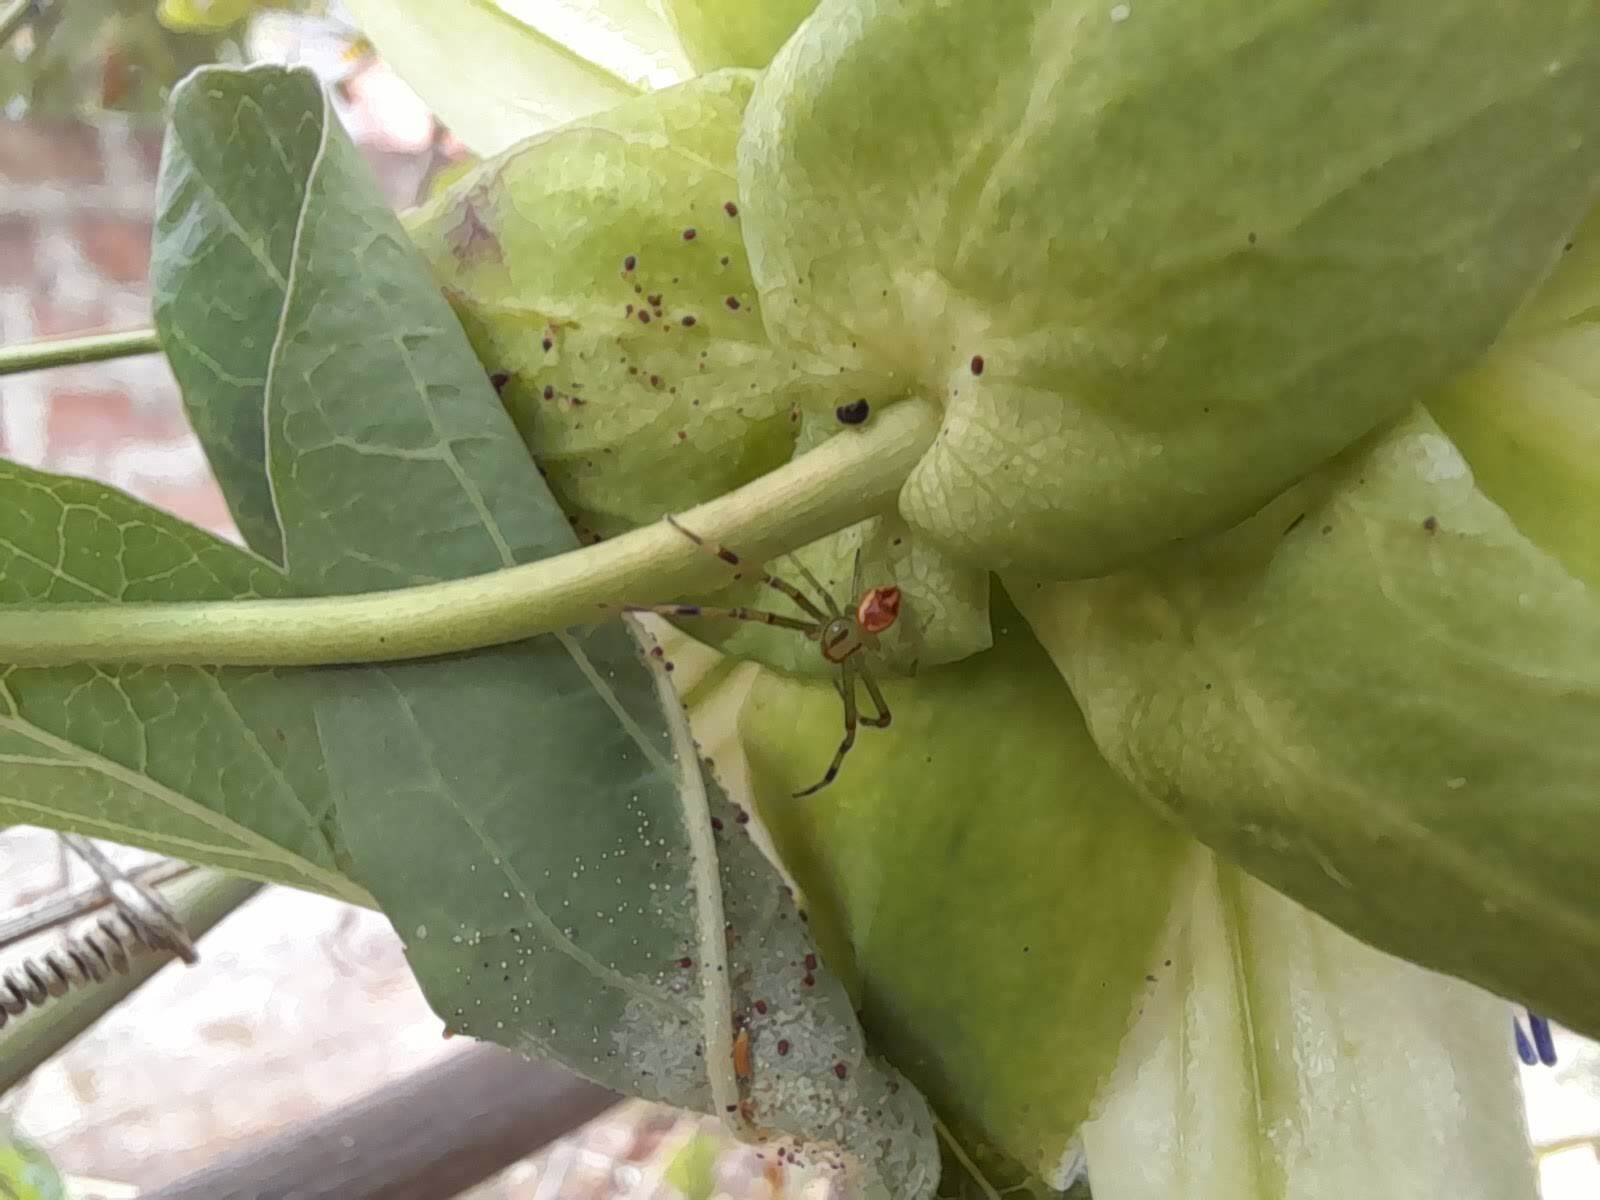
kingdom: Animalia
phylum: Arthropoda
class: Arachnida
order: Araneae
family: Thomisidae
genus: Misumenops
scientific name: Misumenops
